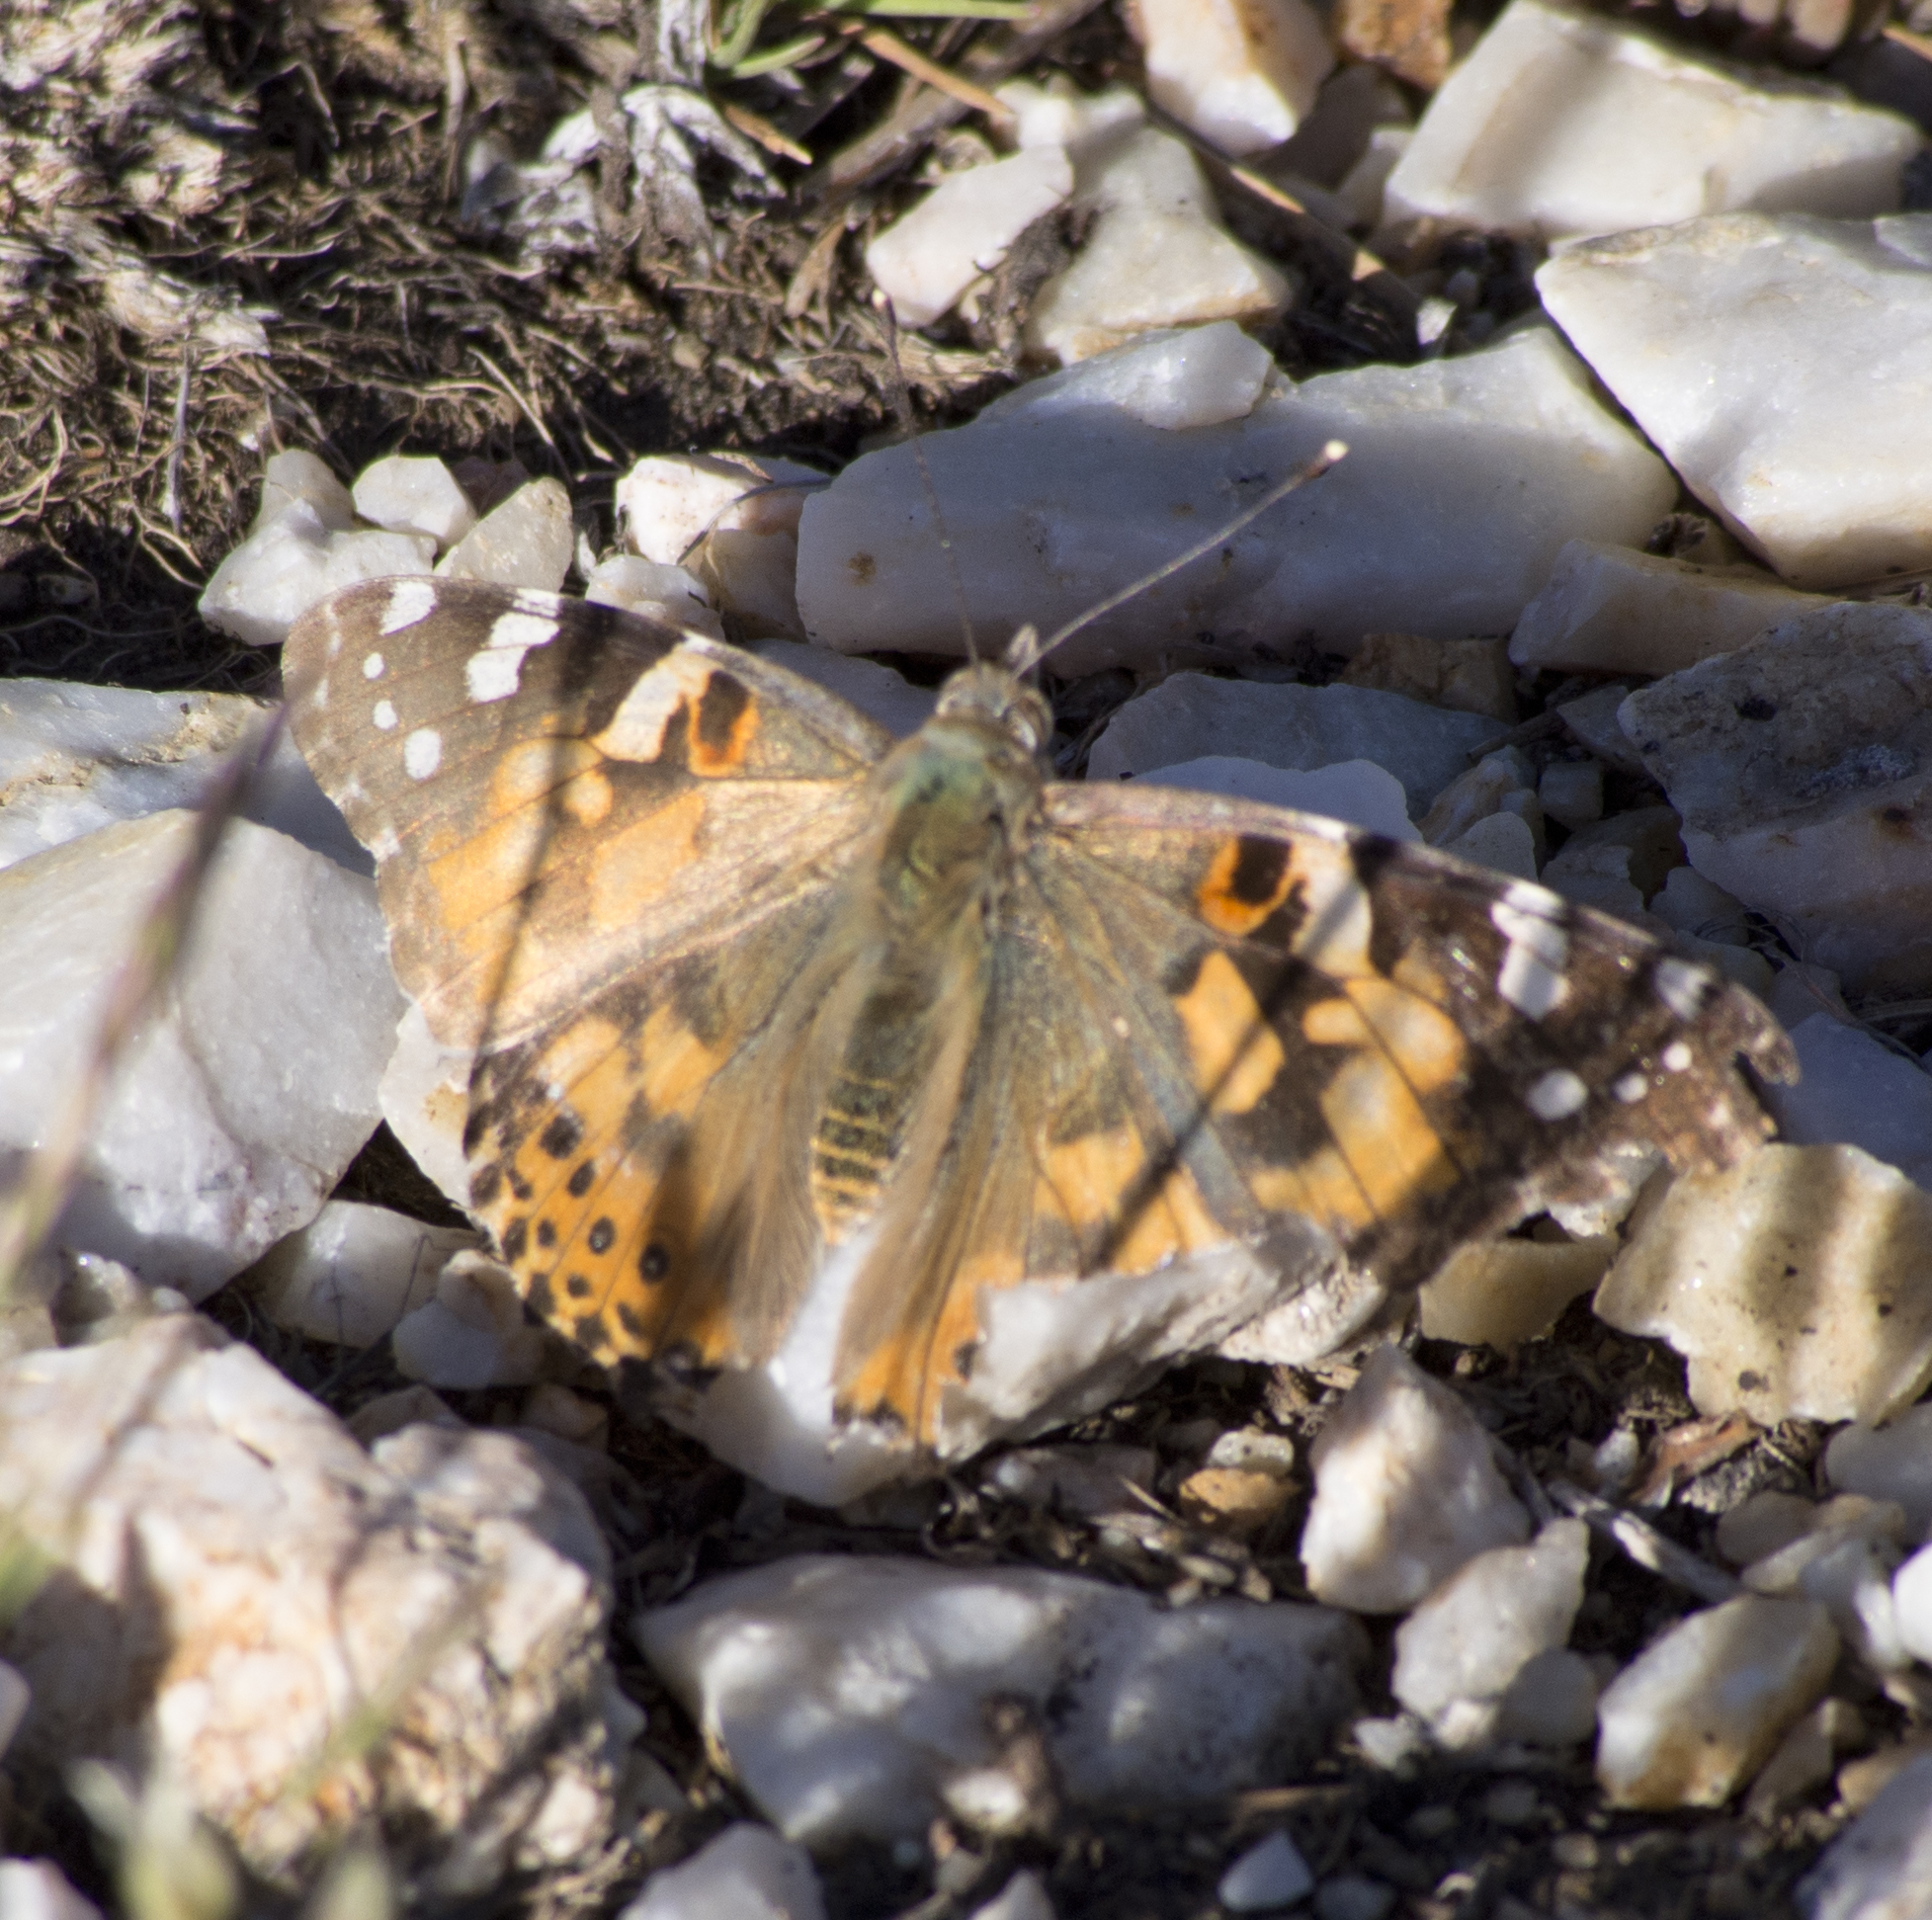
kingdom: Animalia
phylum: Arthropoda
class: Insecta
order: Lepidoptera
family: Nymphalidae
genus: Vanessa
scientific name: Vanessa cardui
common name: Painted lady
